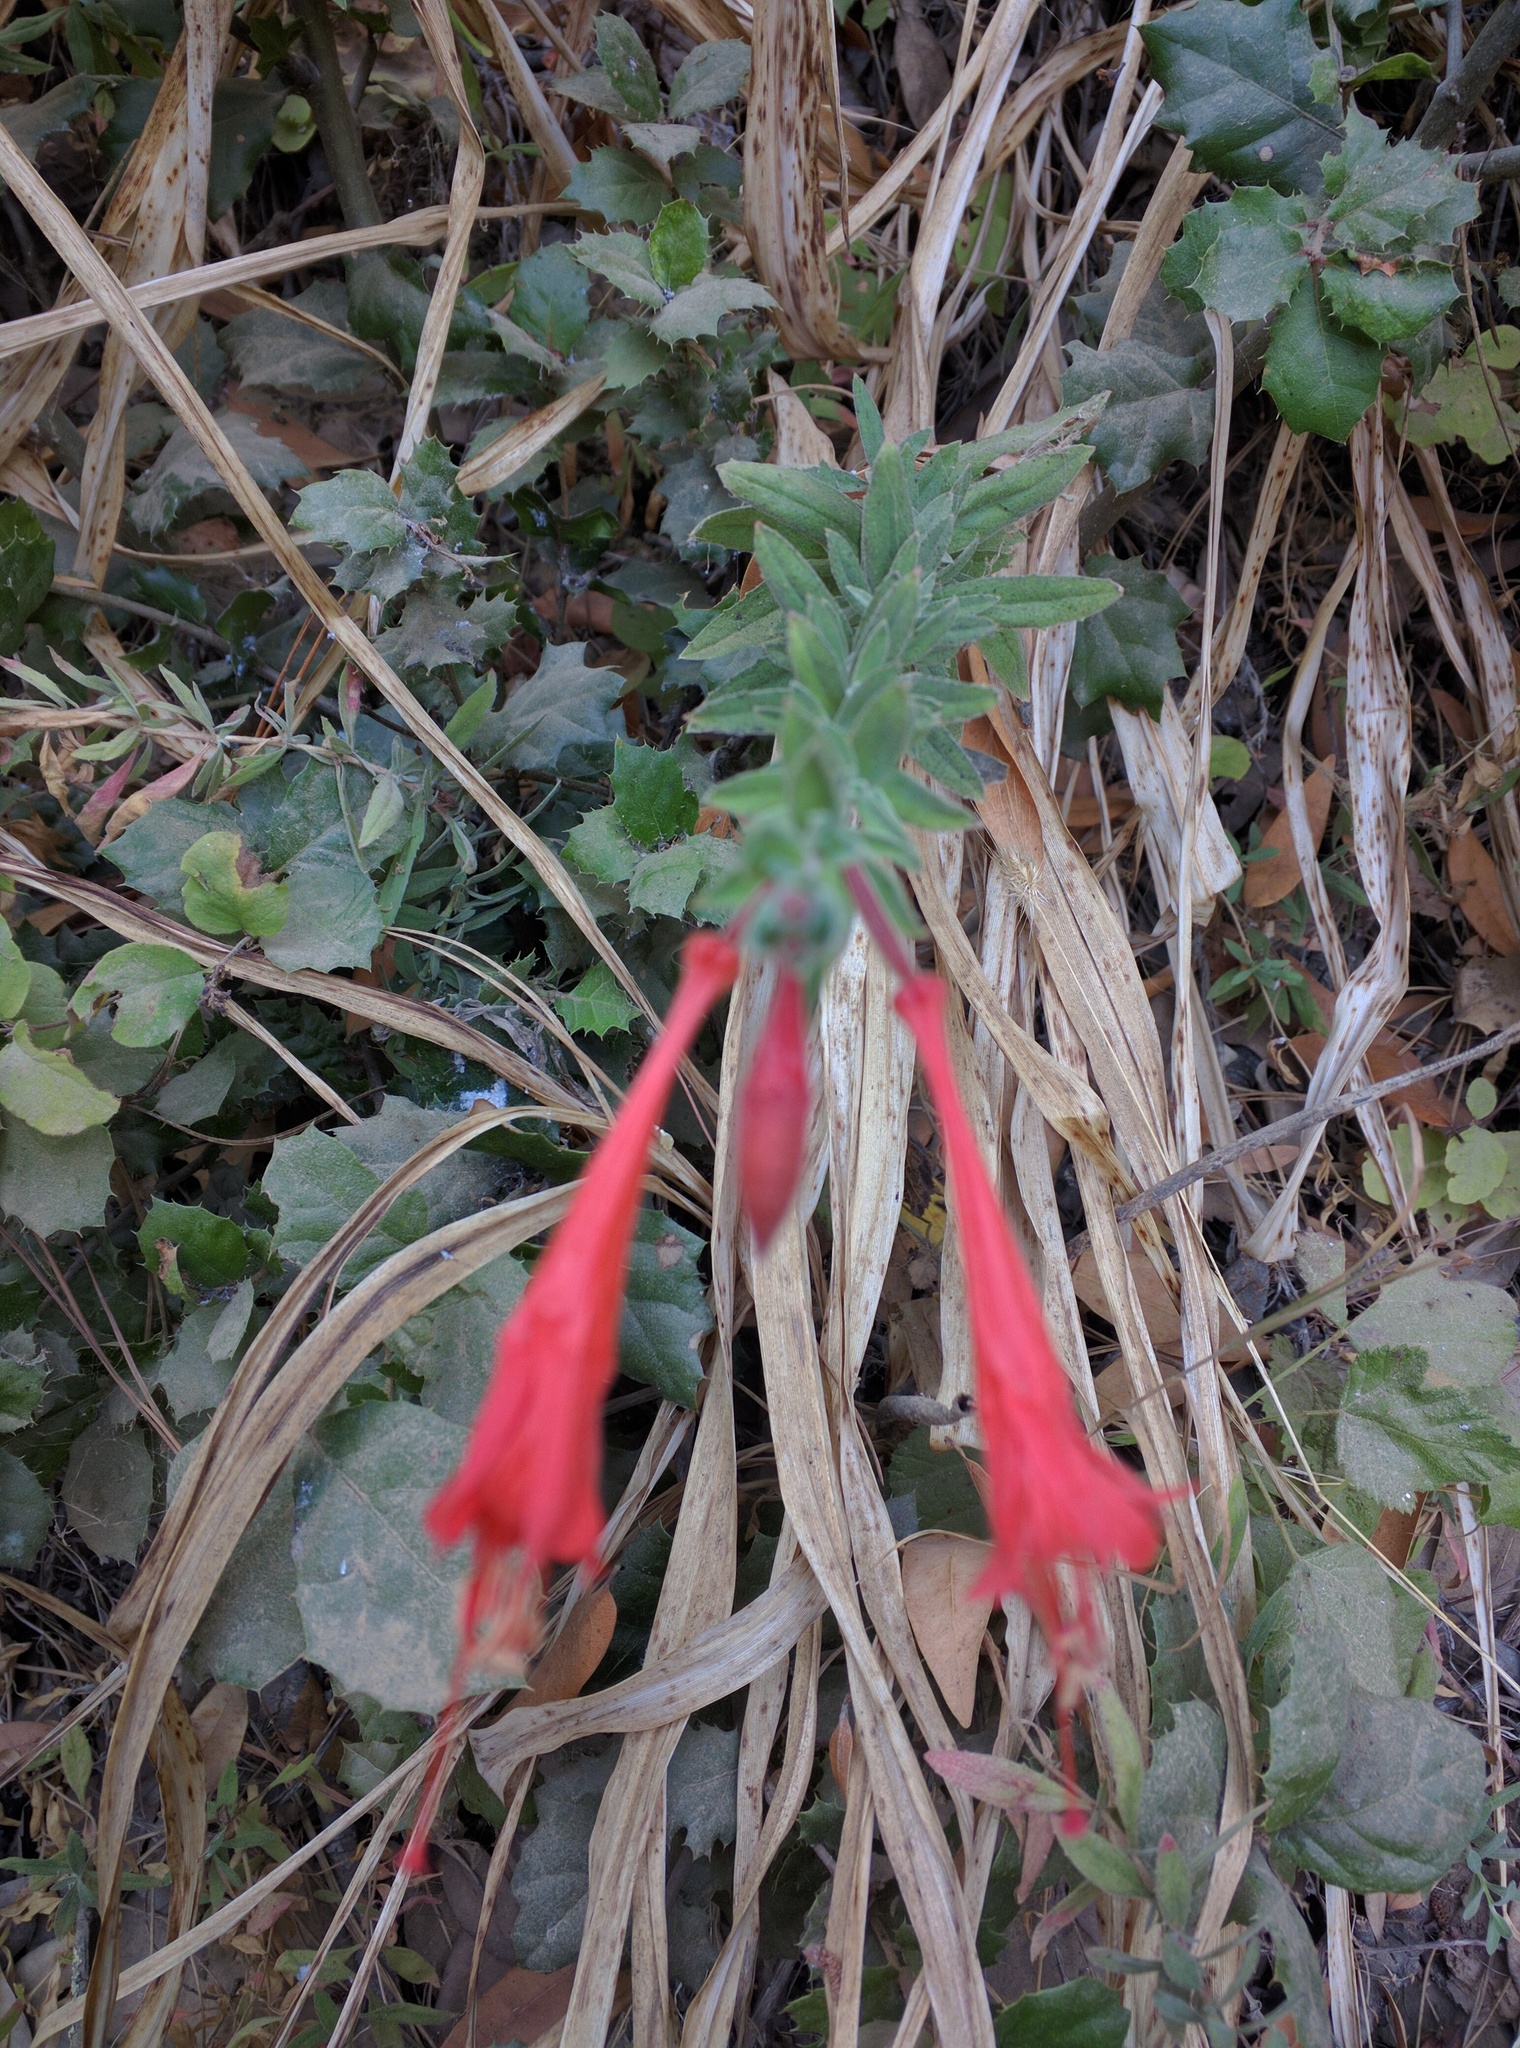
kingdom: Plantae
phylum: Tracheophyta
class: Magnoliopsida
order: Myrtales
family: Onagraceae
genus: Epilobium
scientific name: Epilobium canum
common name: California-fuchsia
